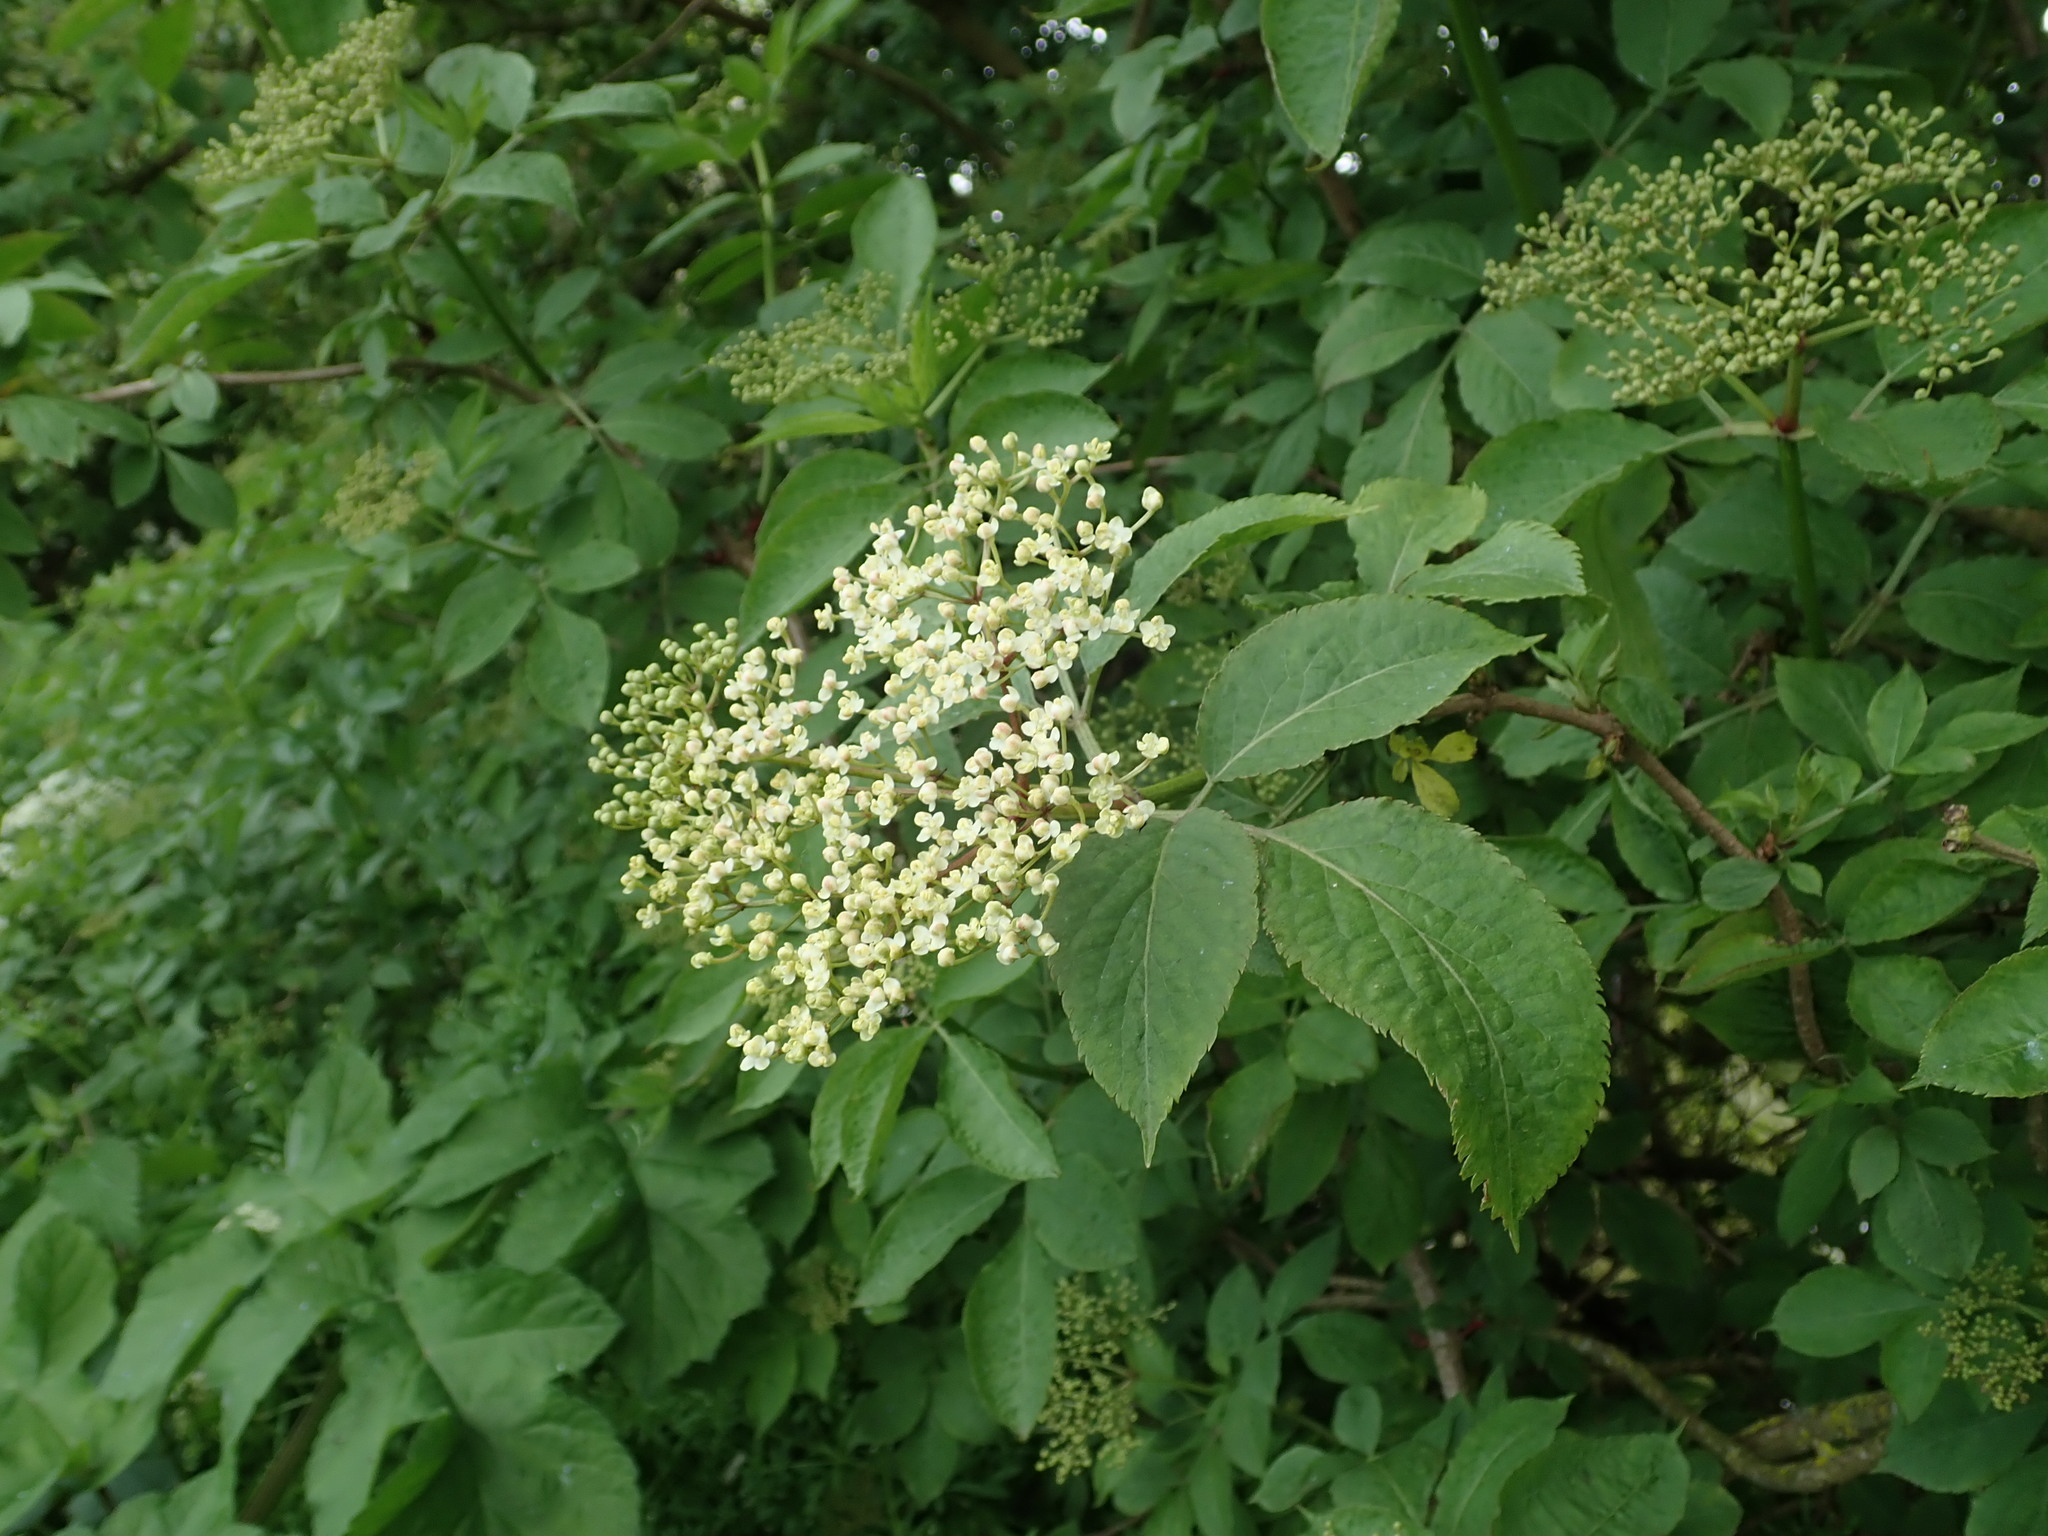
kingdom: Plantae
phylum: Tracheophyta
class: Magnoliopsida
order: Dipsacales
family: Viburnaceae
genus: Sambucus
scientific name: Sambucus nigra
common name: Elder
